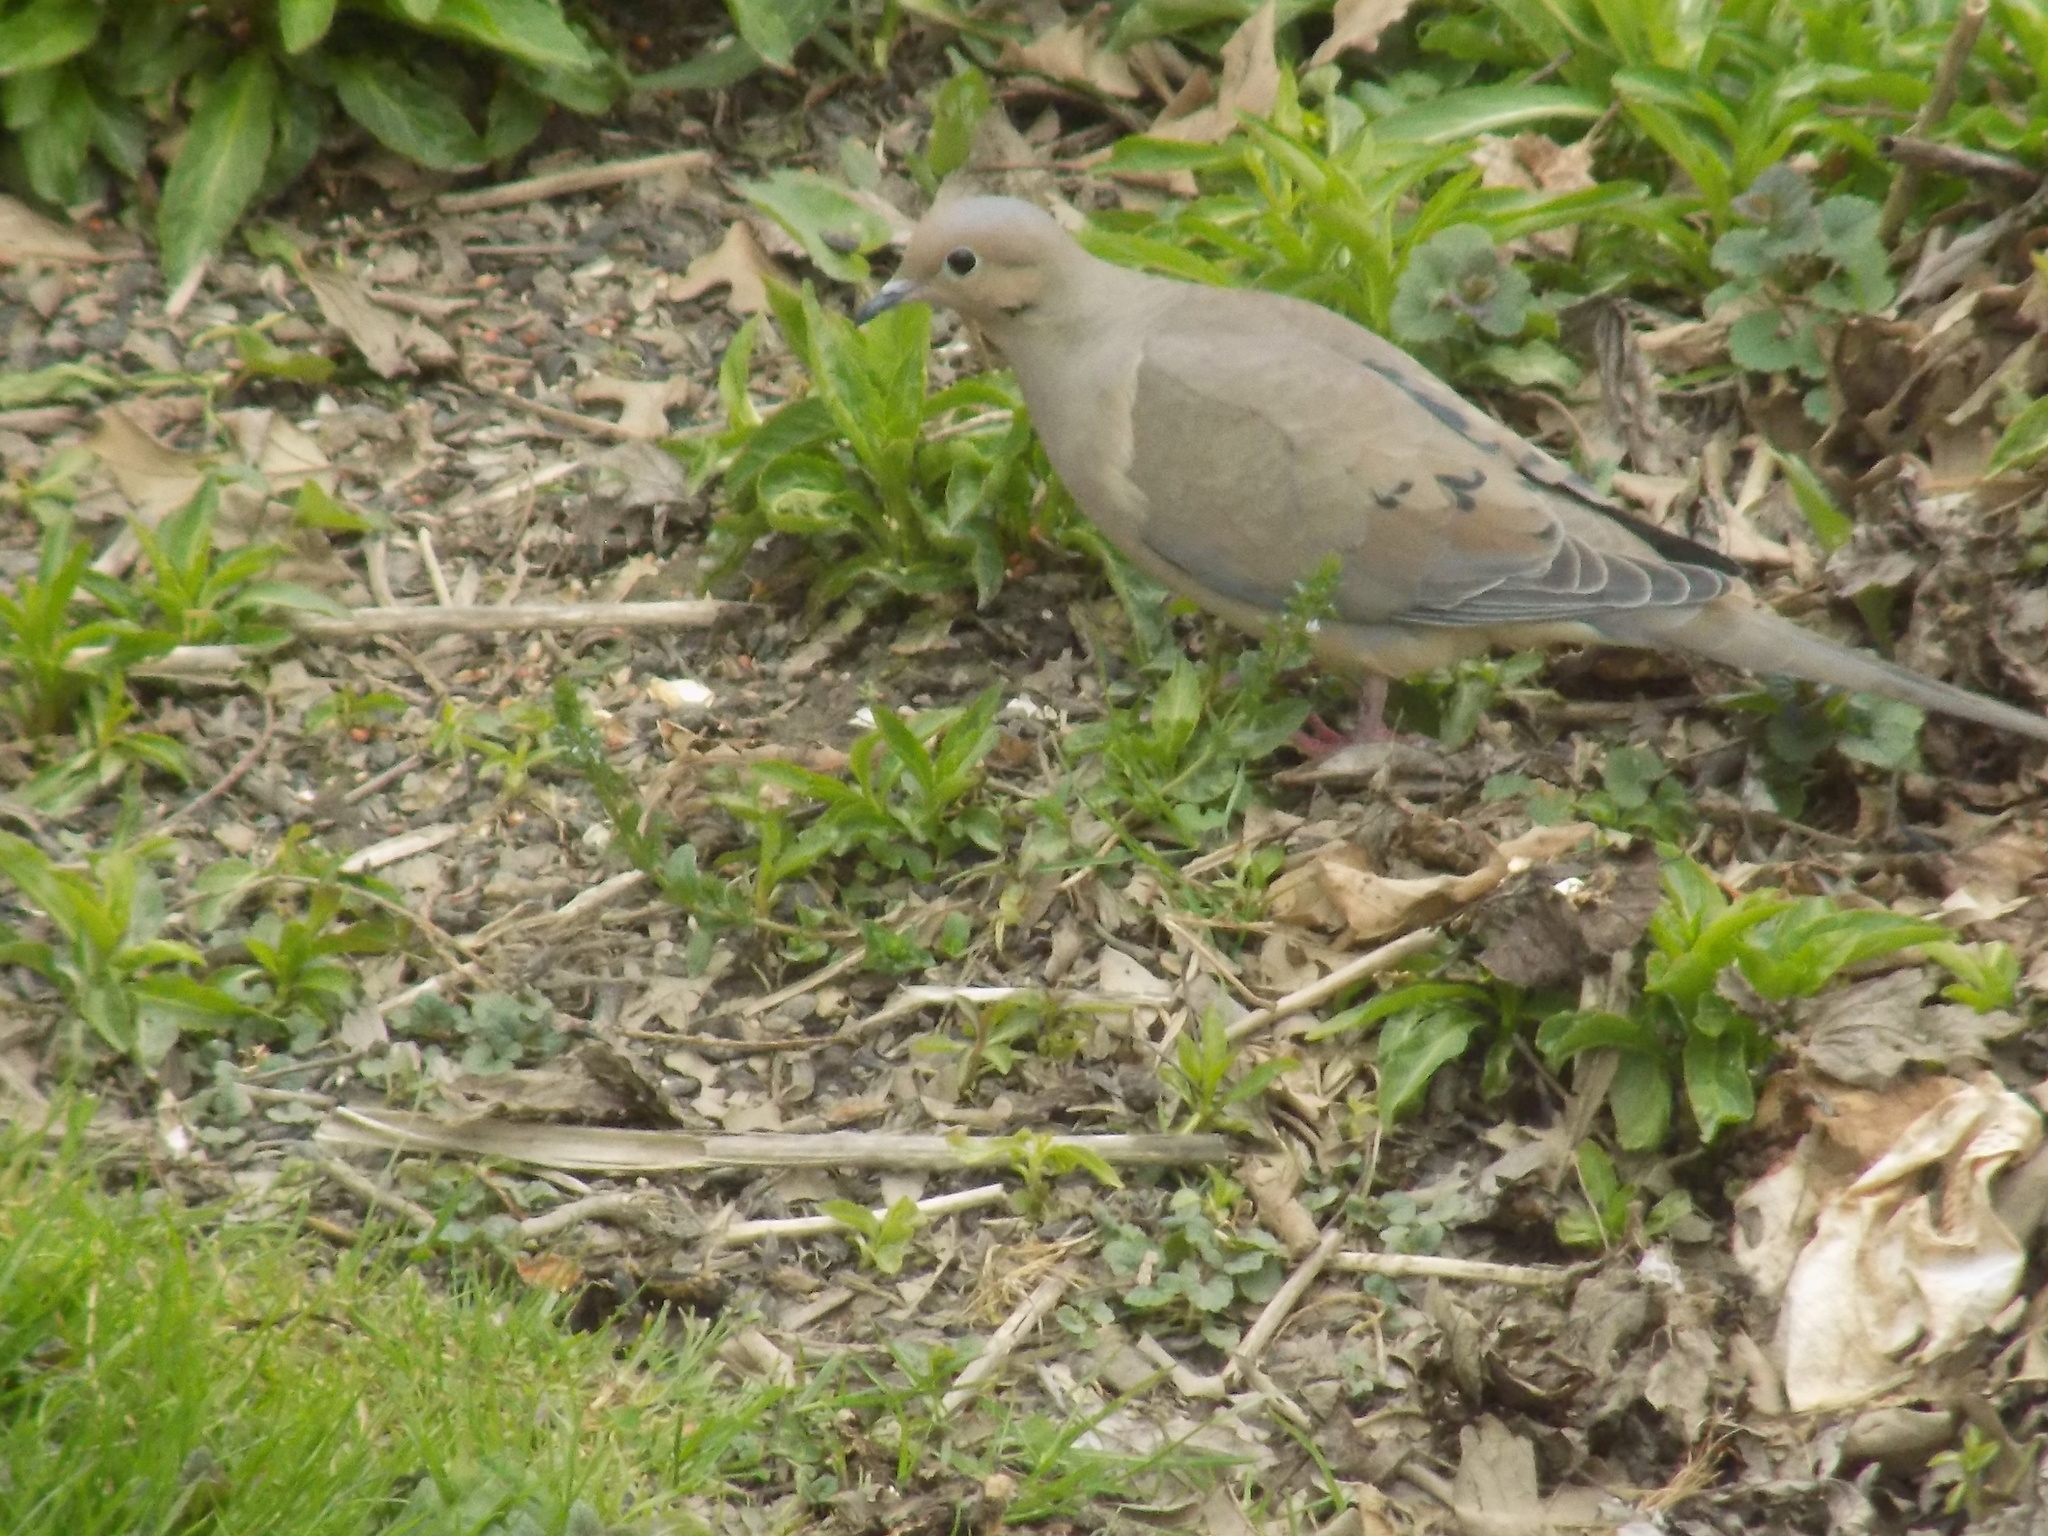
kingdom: Animalia
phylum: Chordata
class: Aves
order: Columbiformes
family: Columbidae
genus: Zenaida
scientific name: Zenaida macroura
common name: Mourning dove
